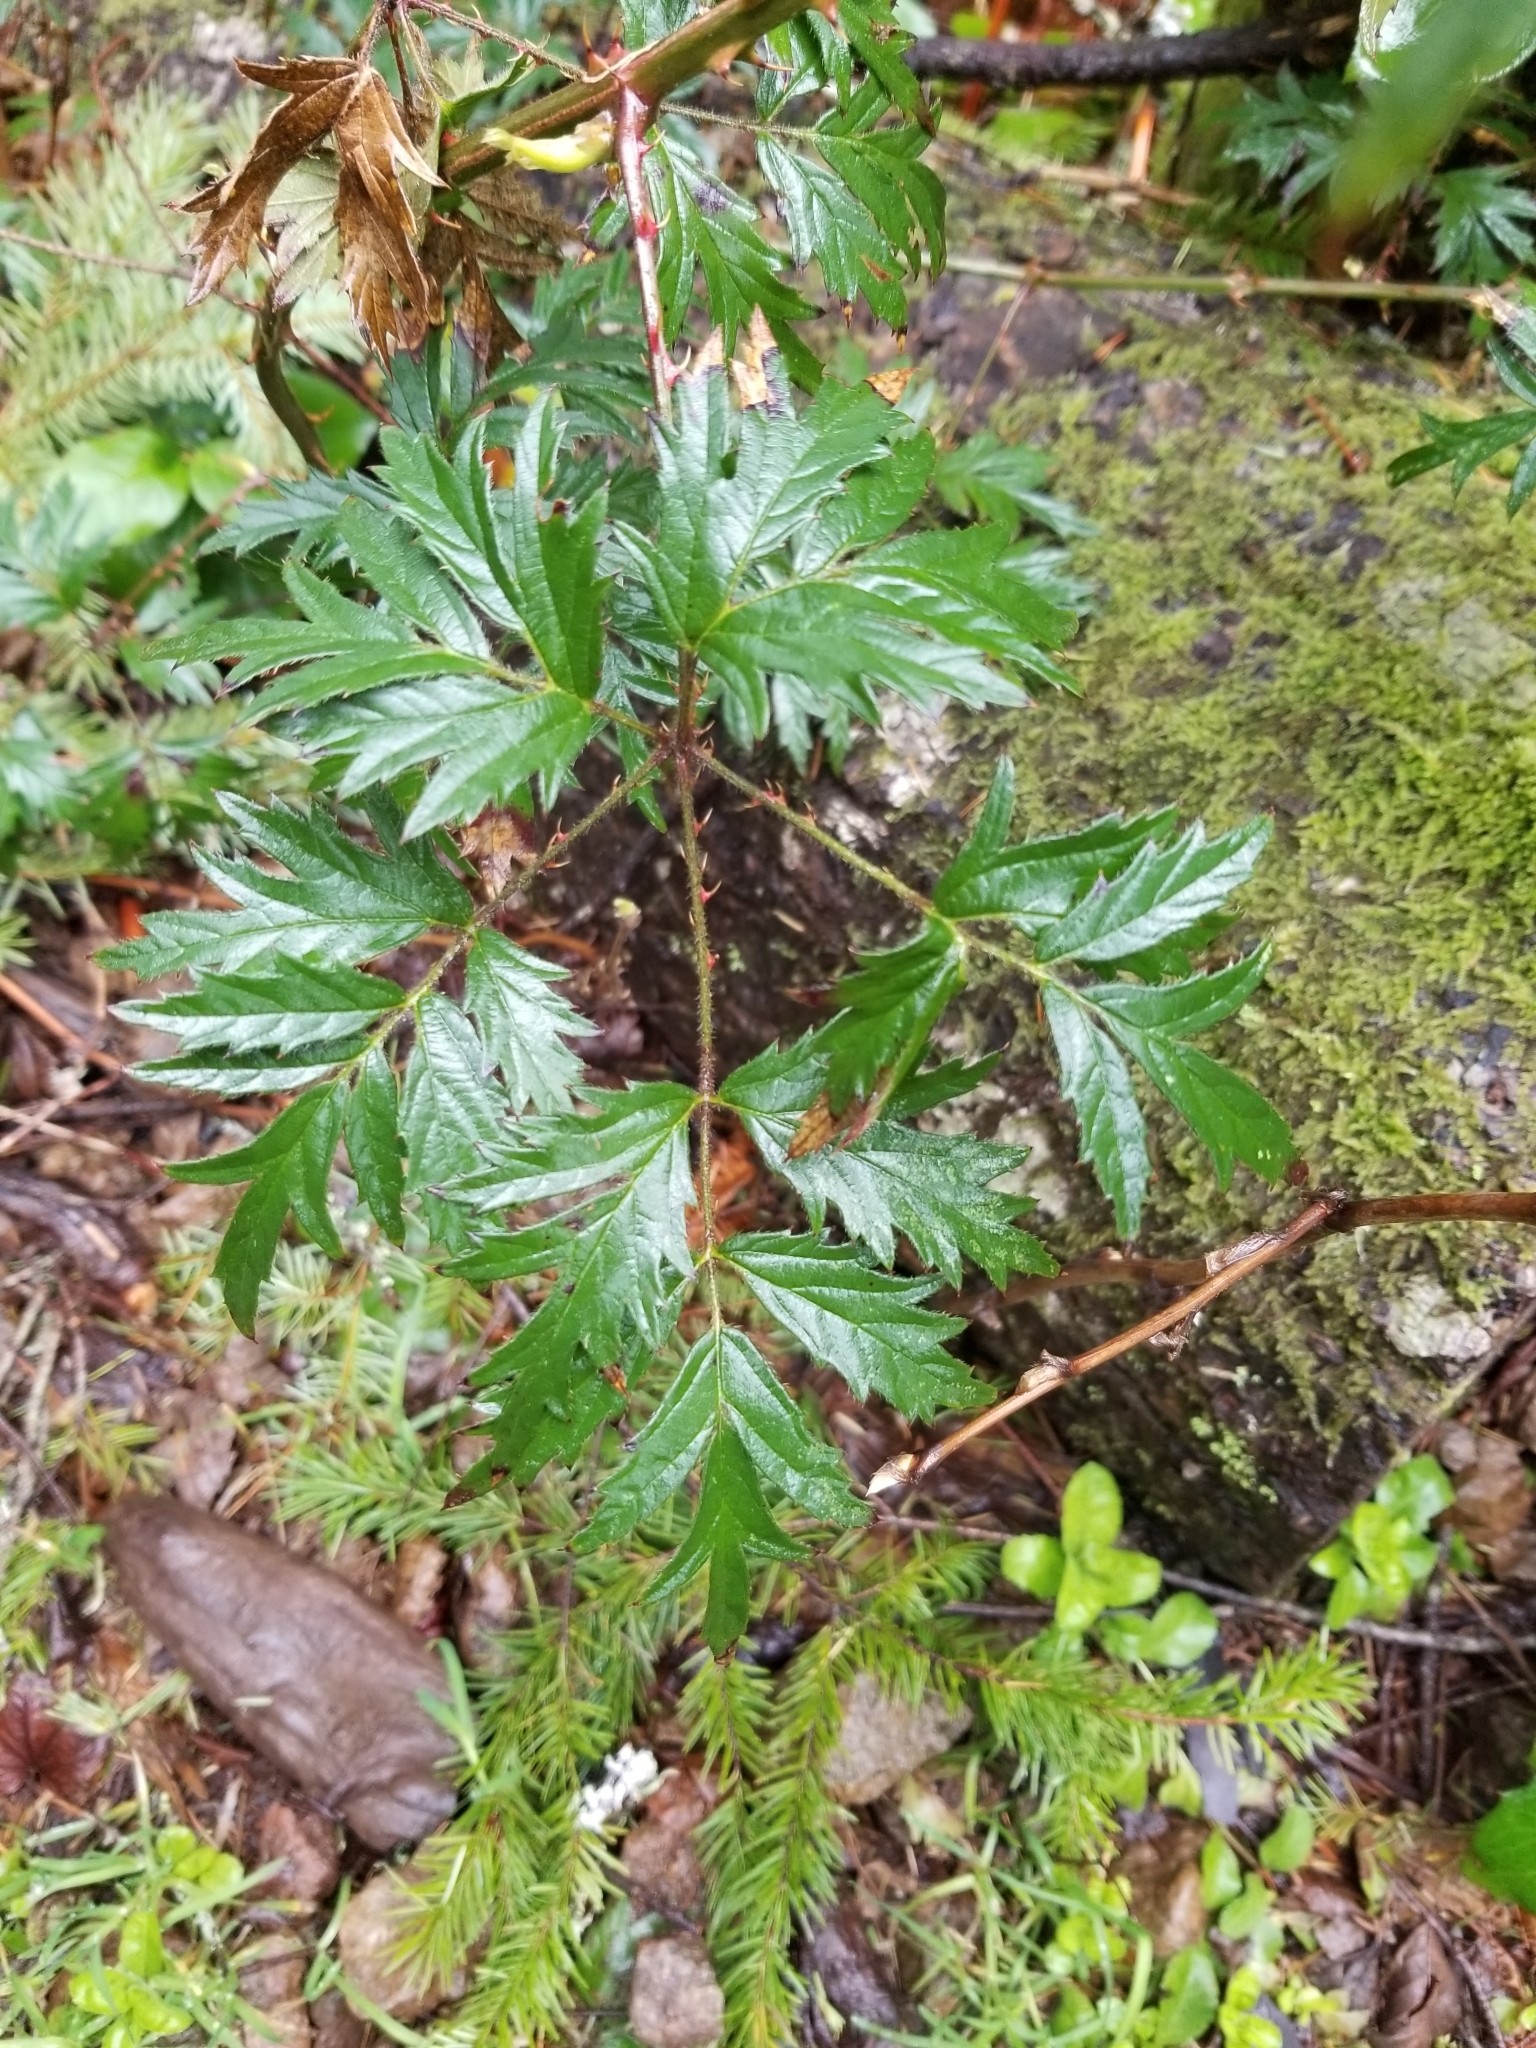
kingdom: Plantae
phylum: Tracheophyta
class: Magnoliopsida
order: Rosales
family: Rosaceae
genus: Rubus
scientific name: Rubus laciniatus
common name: Evergreen blackberry
